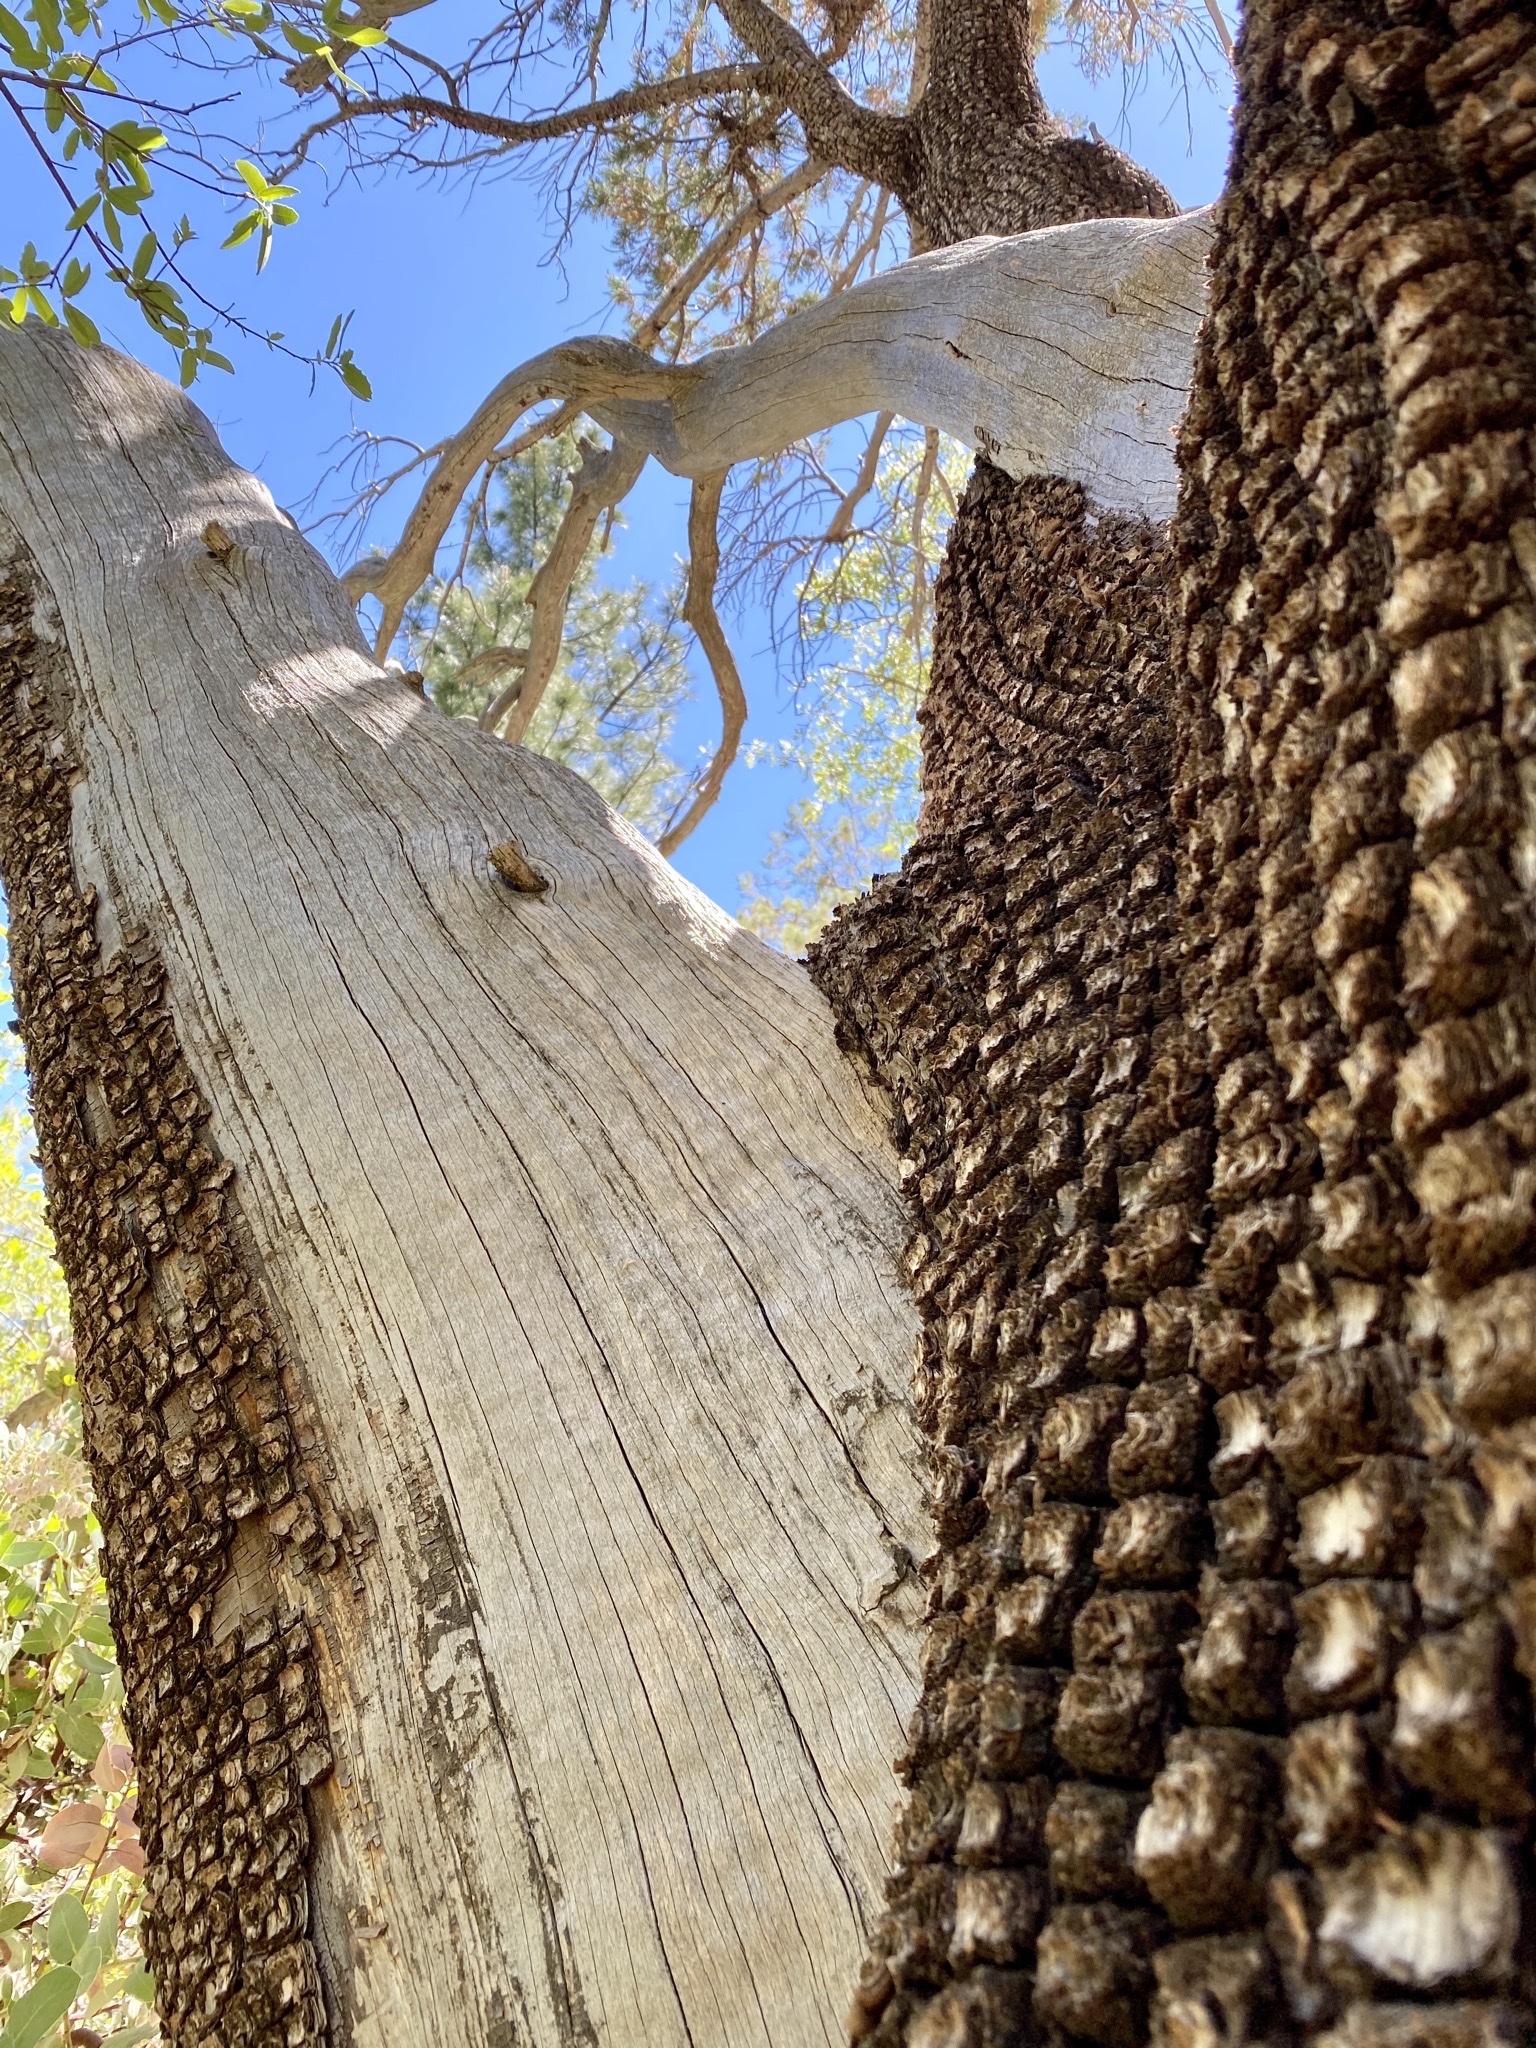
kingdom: Plantae
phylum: Tracheophyta
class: Pinopsida
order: Pinales
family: Cupressaceae
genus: Juniperus
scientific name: Juniperus deppeana
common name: Alligator juniper
